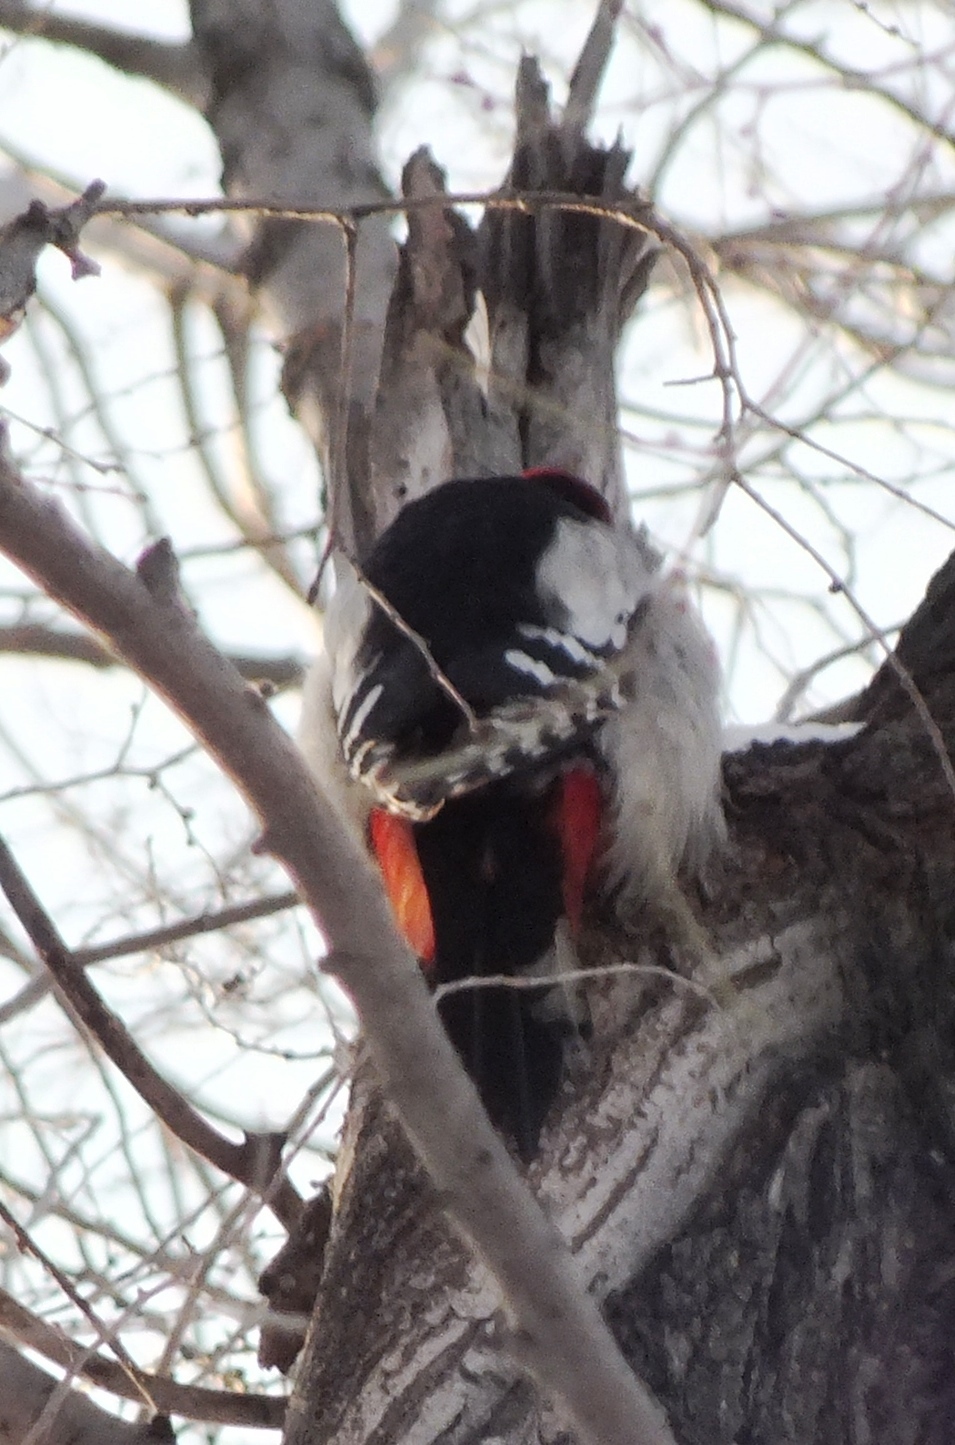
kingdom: Animalia
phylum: Chordata
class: Aves
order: Piciformes
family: Picidae
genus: Dendrocopos
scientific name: Dendrocopos major
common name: Great spotted woodpecker
